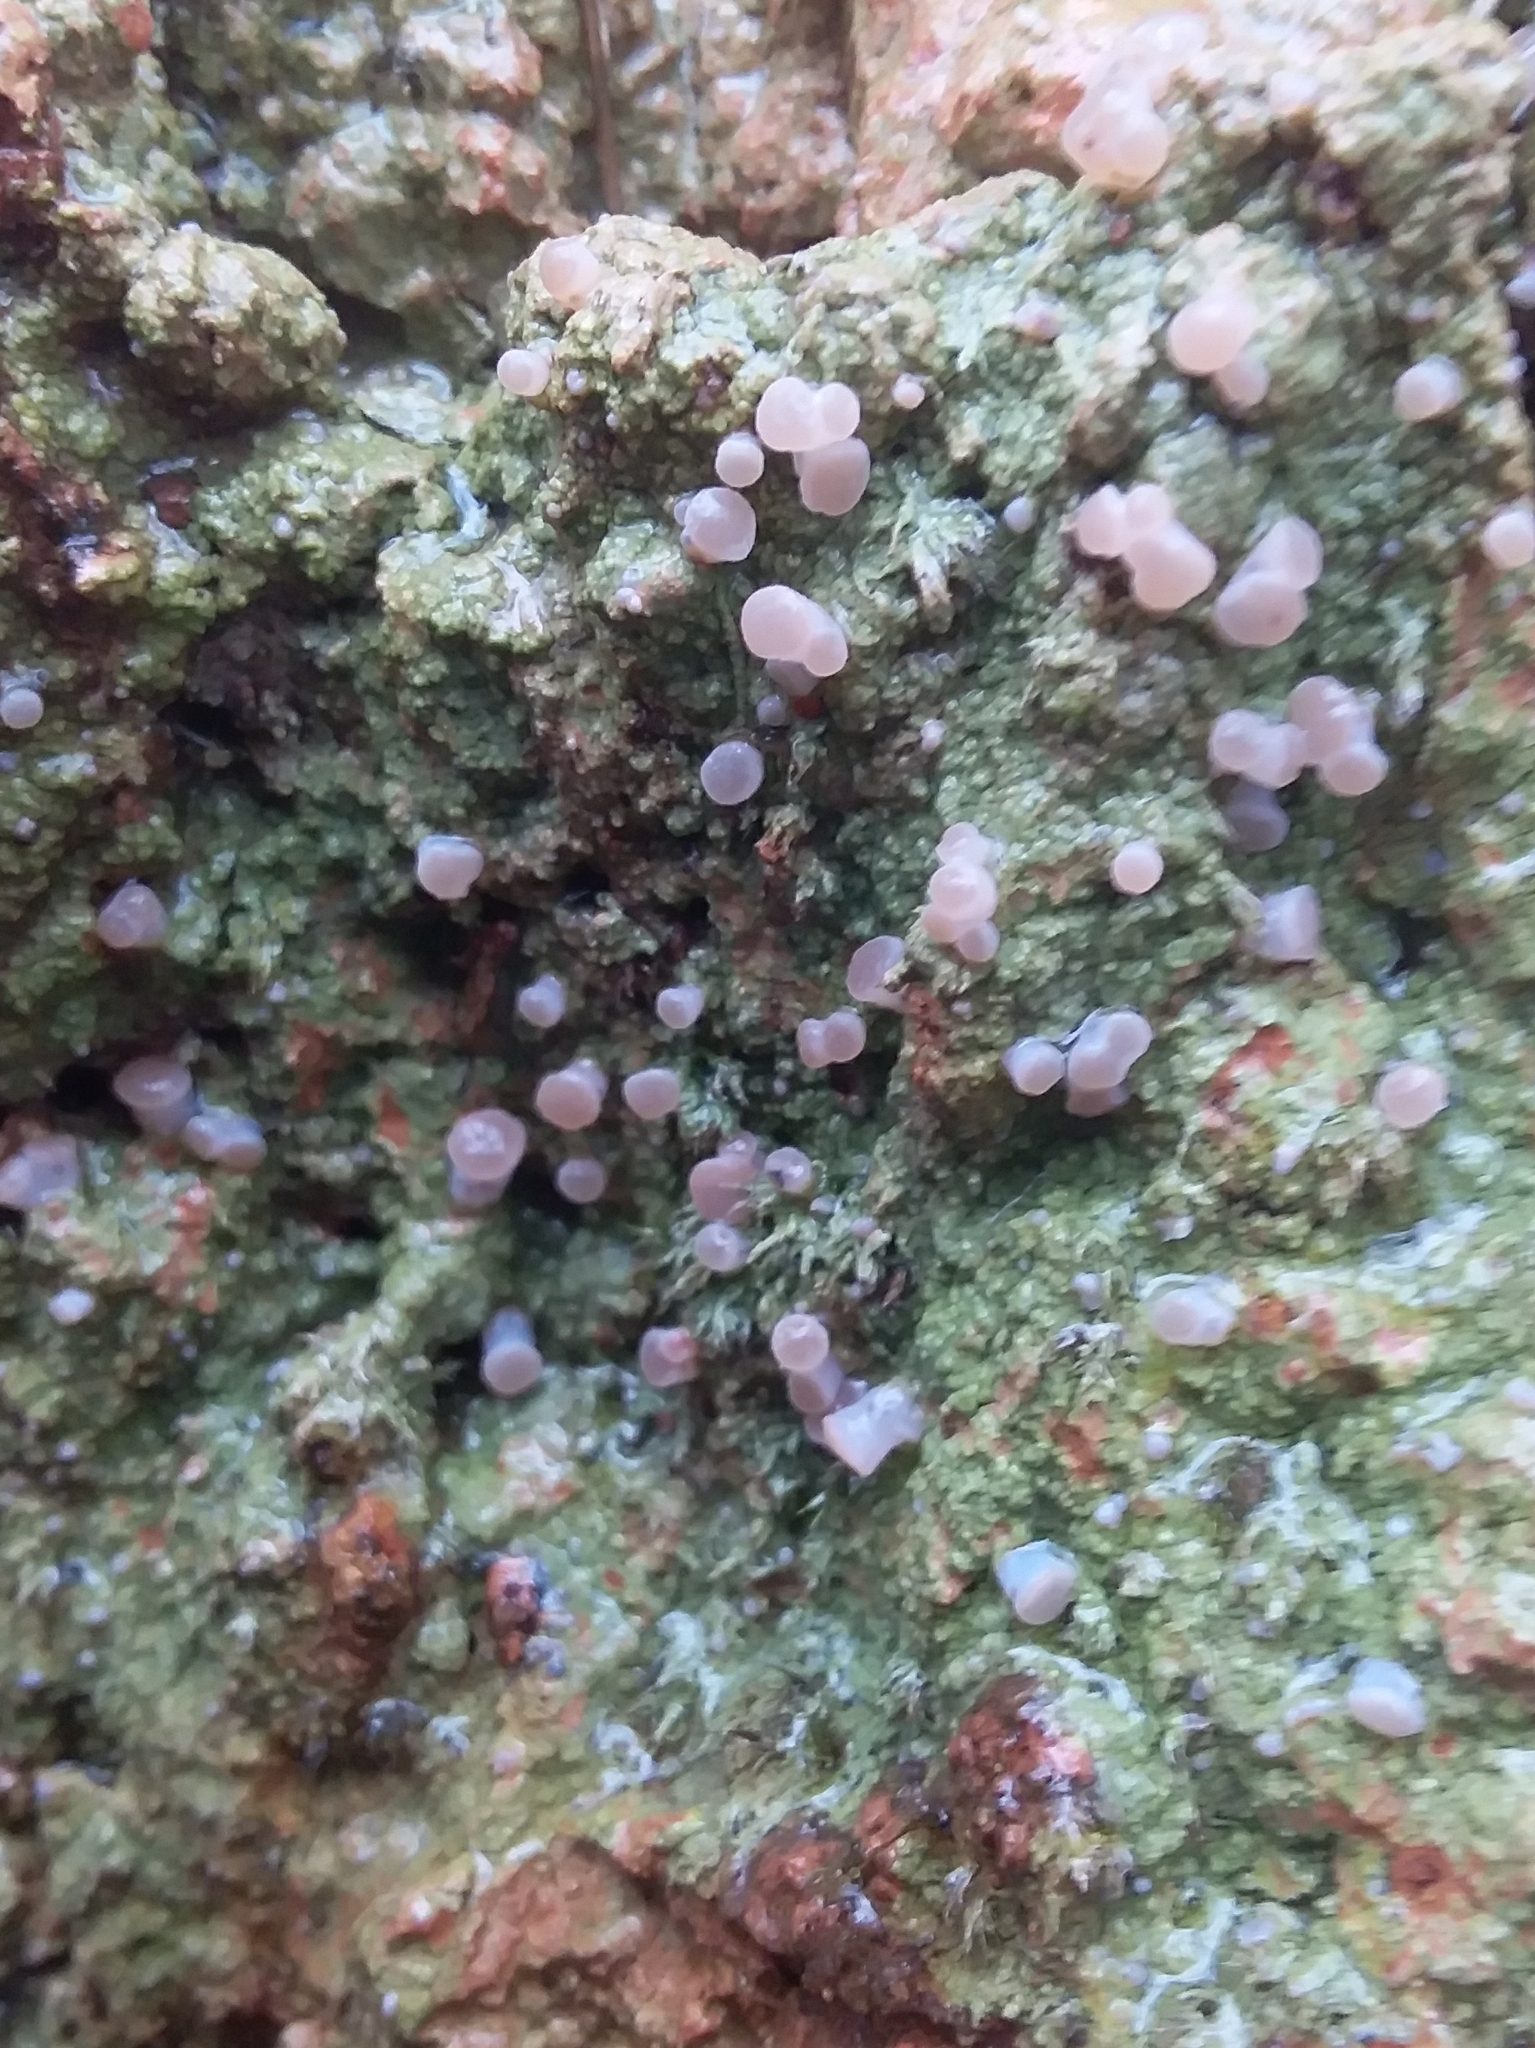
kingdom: Fungi
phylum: Ascomycota
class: Lecanoromycetes
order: Baeomycetales
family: Baeomycetaceae
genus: Baeomyces
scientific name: Baeomyces heteromorphus
